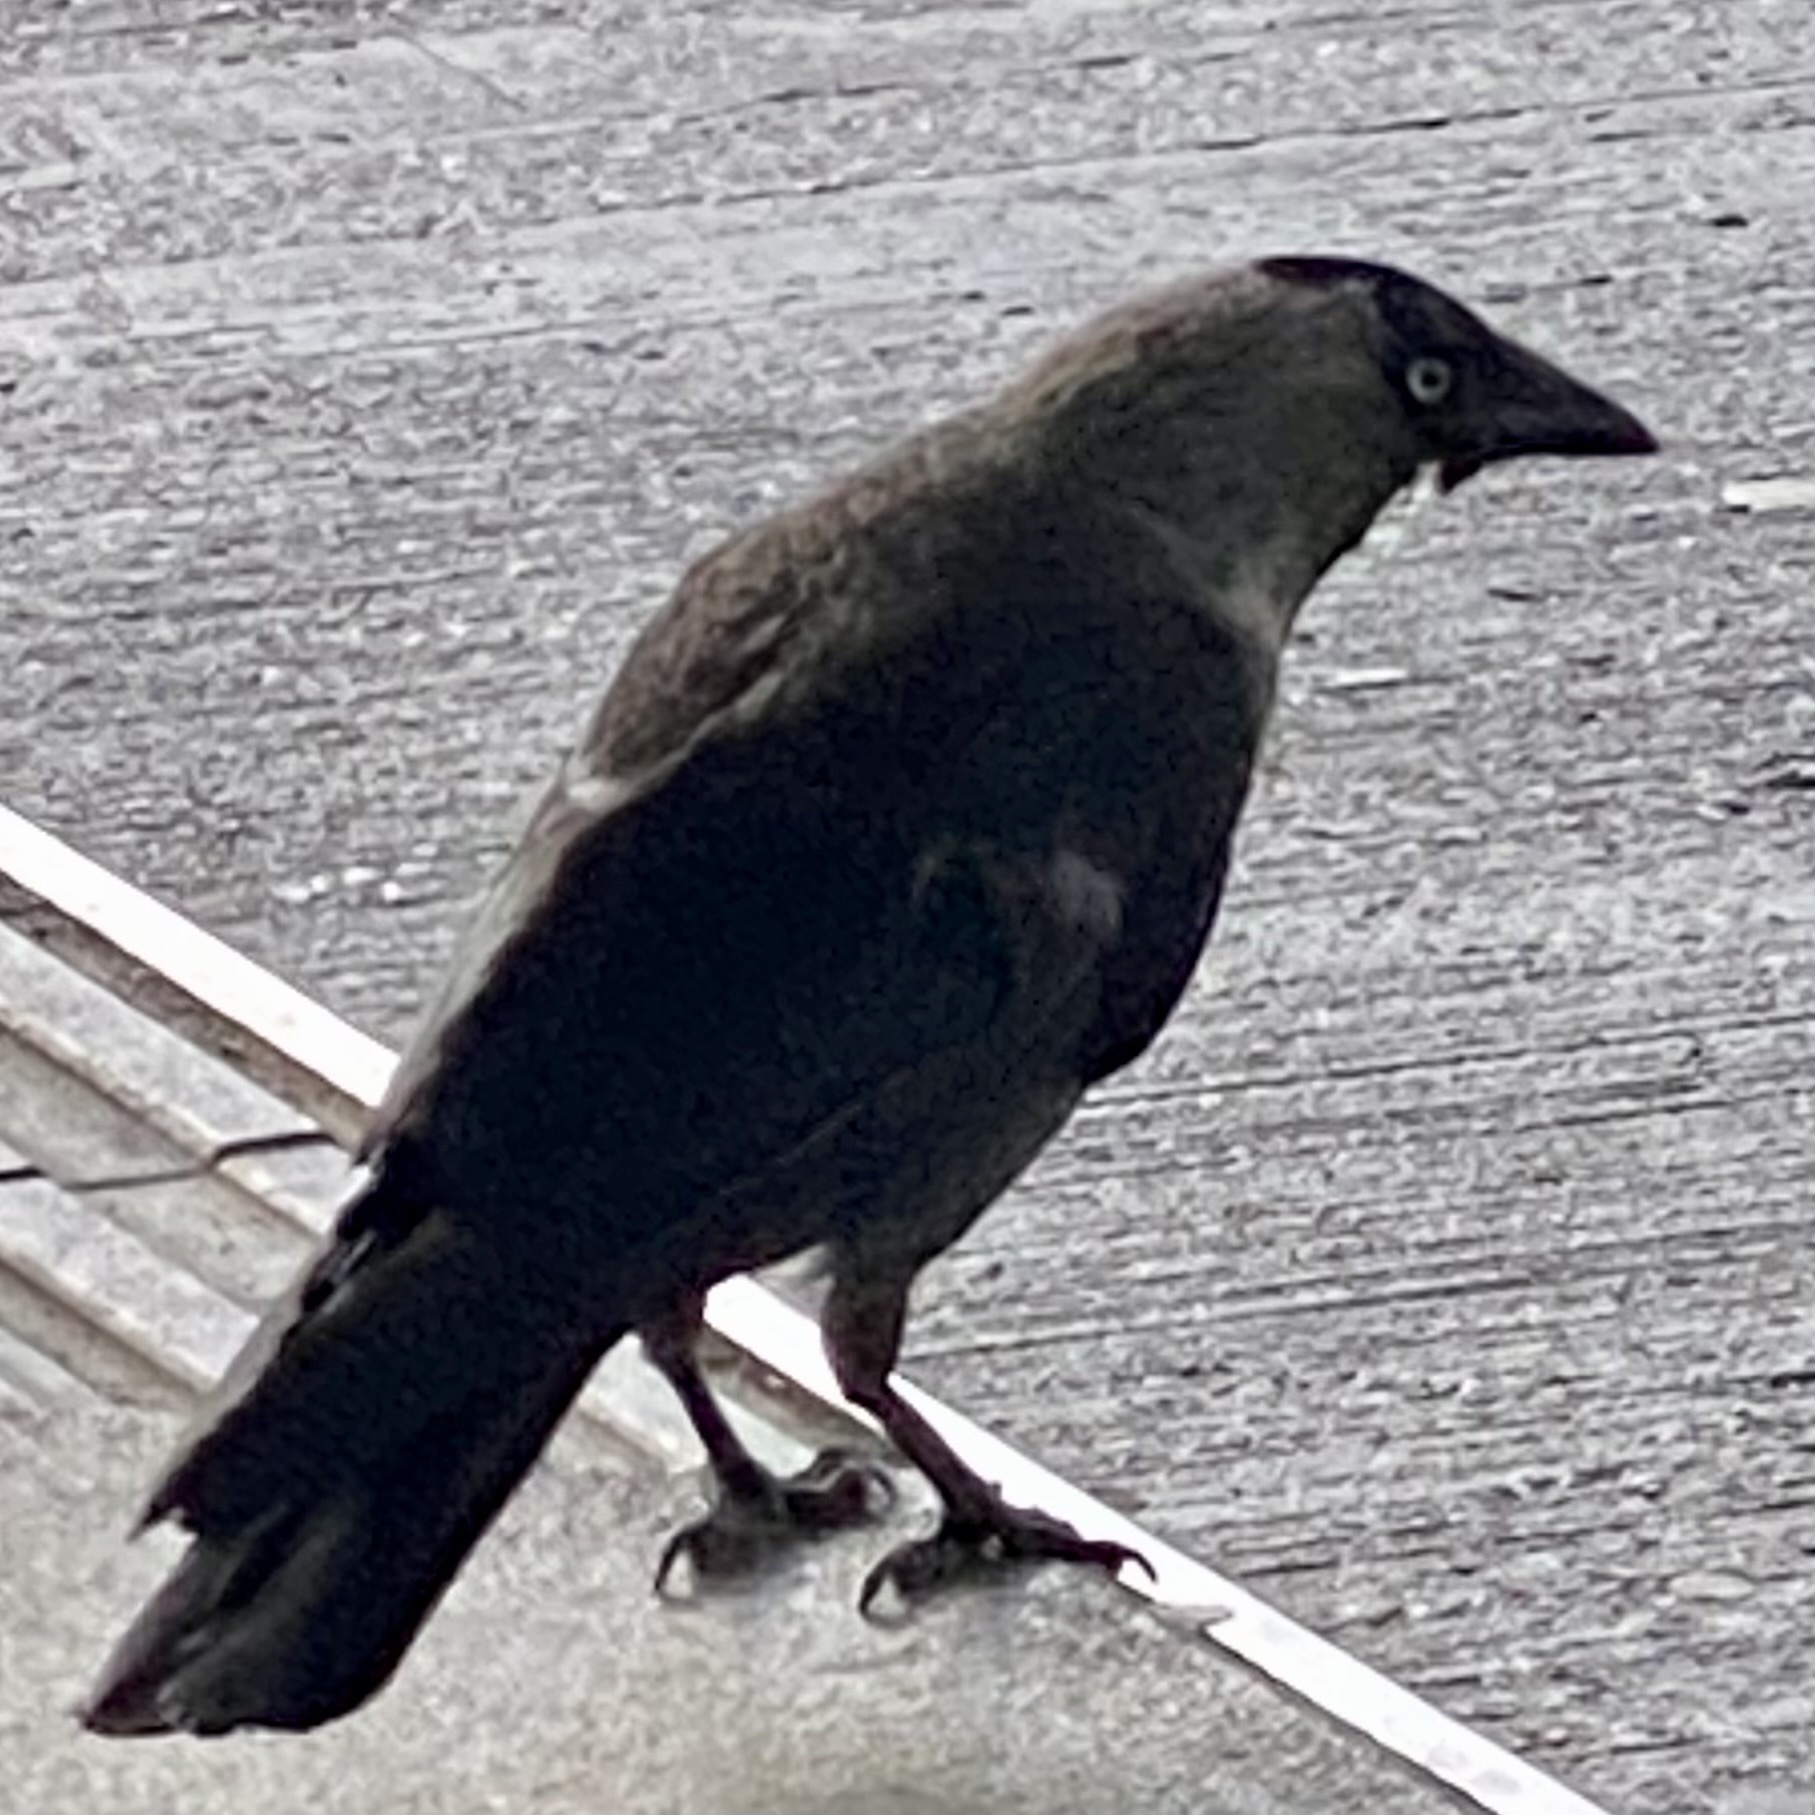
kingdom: Animalia
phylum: Chordata
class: Aves
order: Passeriformes
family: Corvidae
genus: Coloeus
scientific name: Coloeus monedula
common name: Western jackdaw
